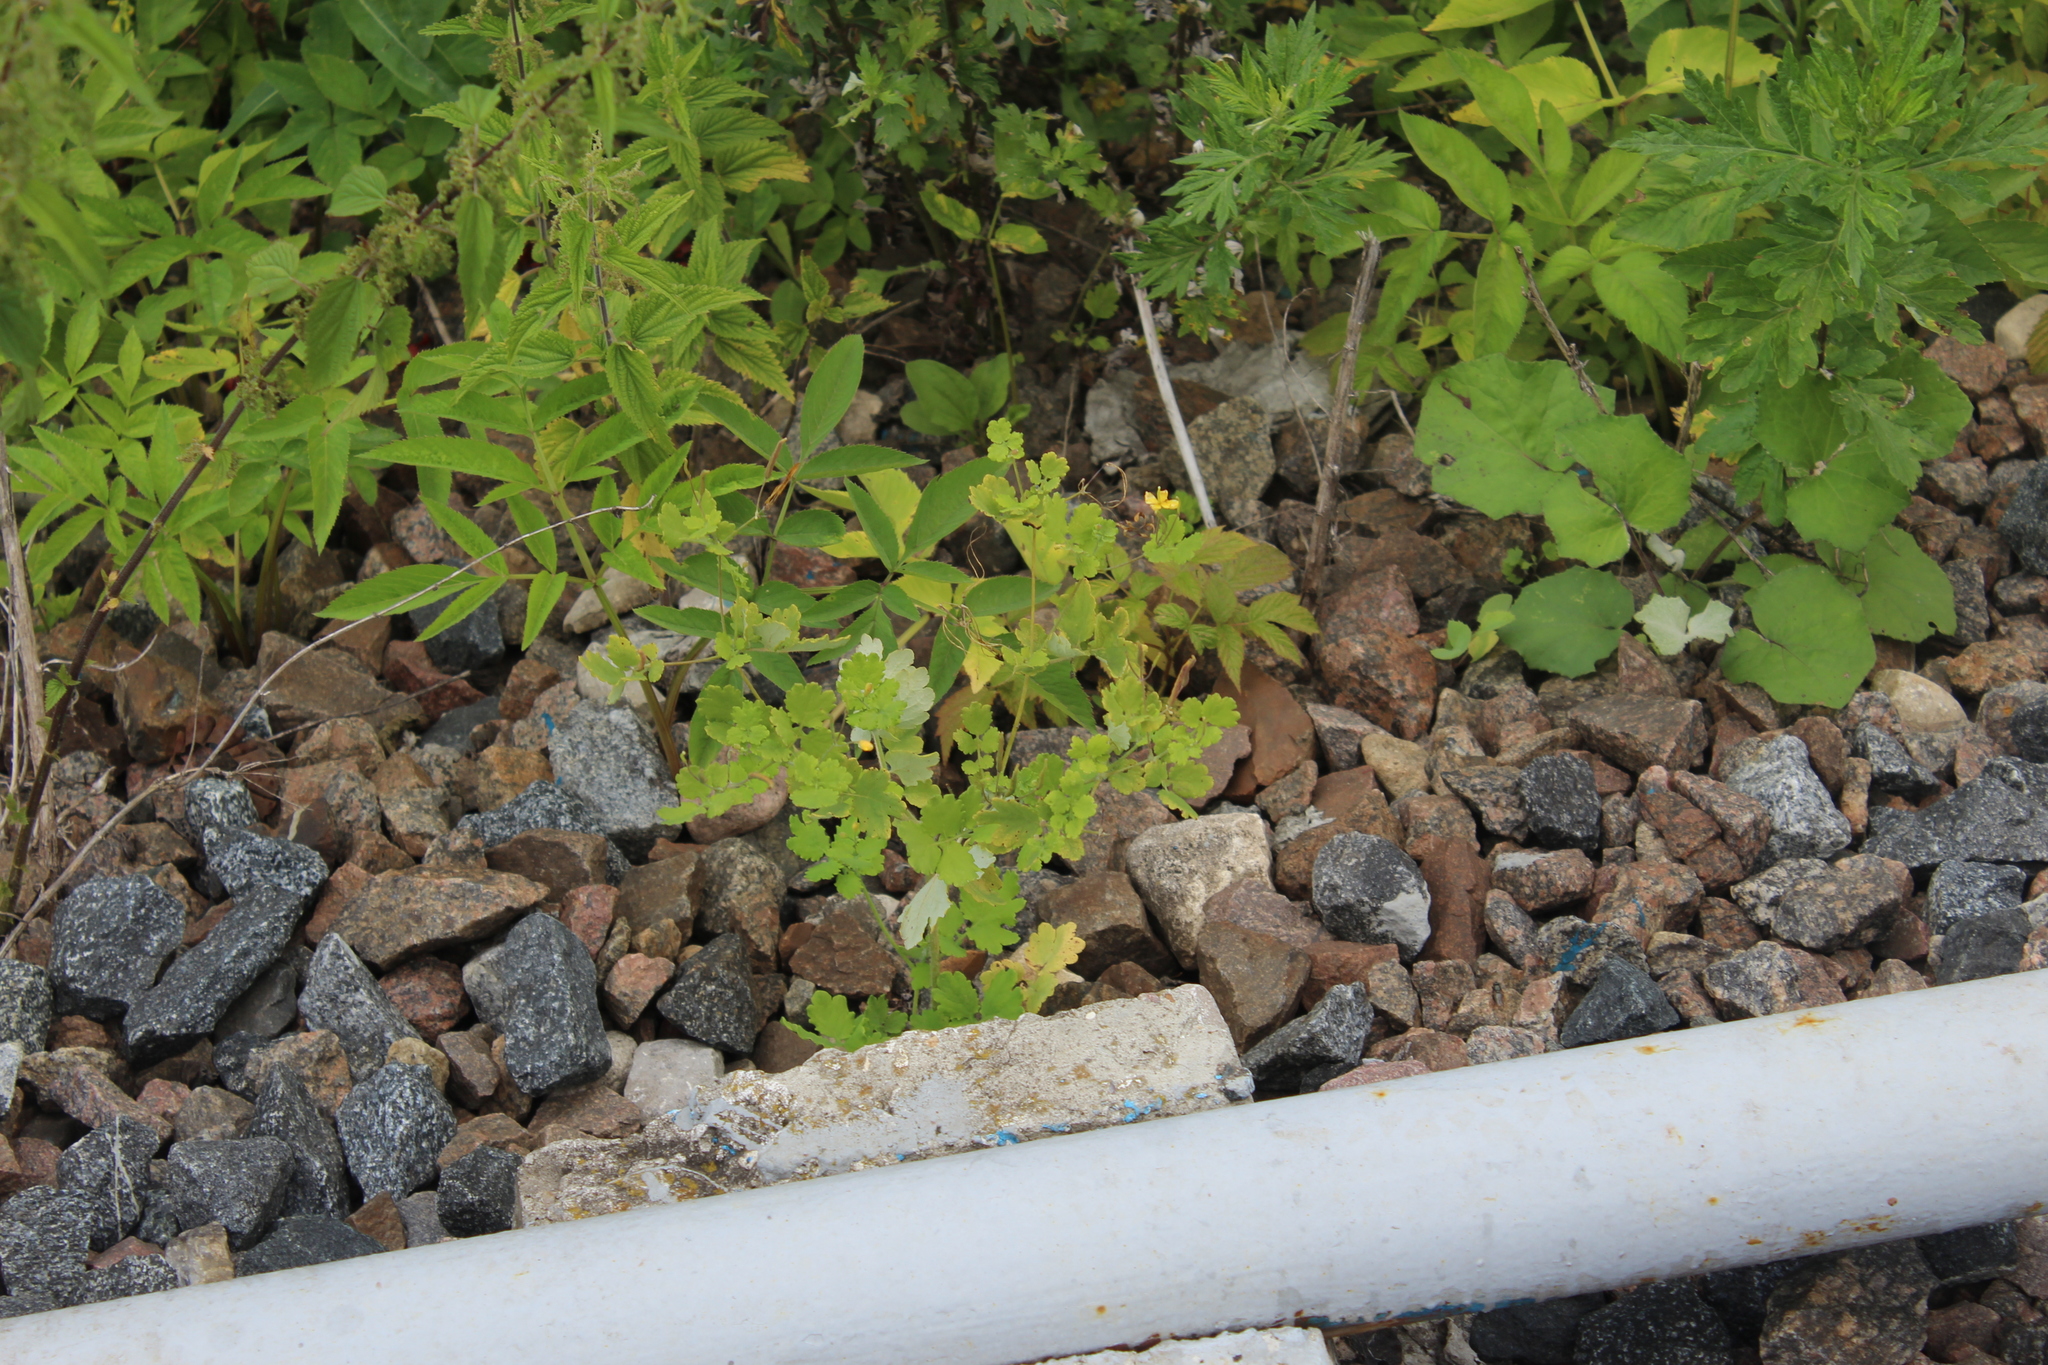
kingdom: Plantae
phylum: Tracheophyta
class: Magnoliopsida
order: Ranunculales
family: Papaveraceae
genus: Chelidonium
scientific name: Chelidonium majus
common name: Greater celandine
